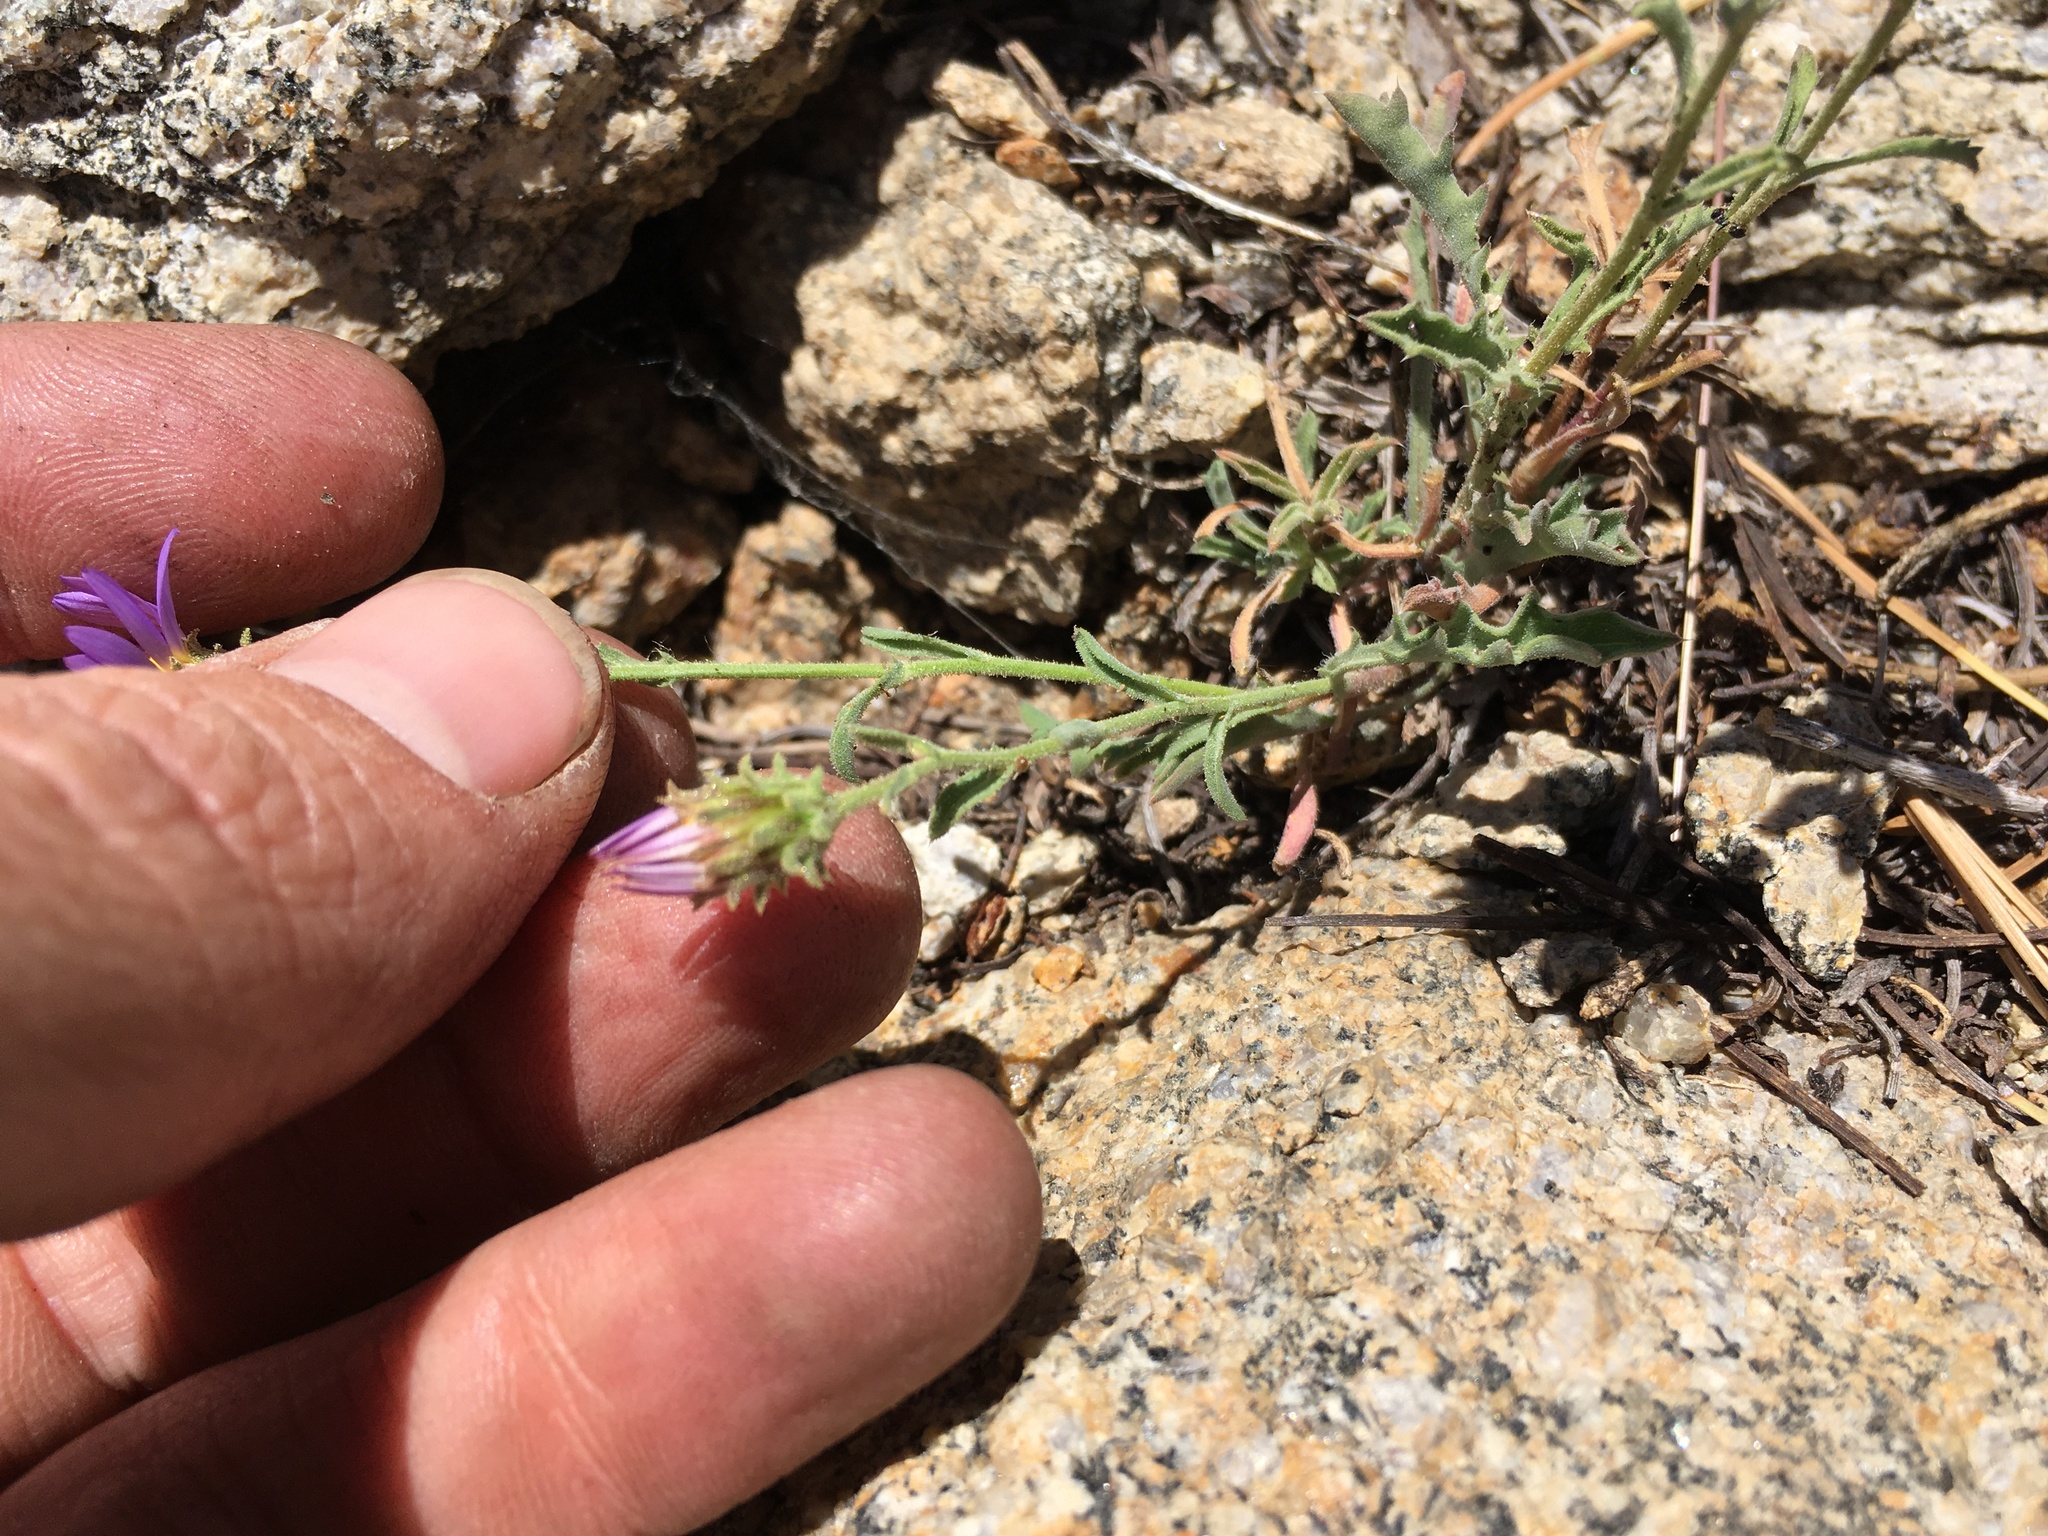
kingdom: Plantae
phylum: Tracheophyta
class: Magnoliopsida
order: Asterales
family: Asteraceae
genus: Dieteria
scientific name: Dieteria canescens
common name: Hoary-aster
